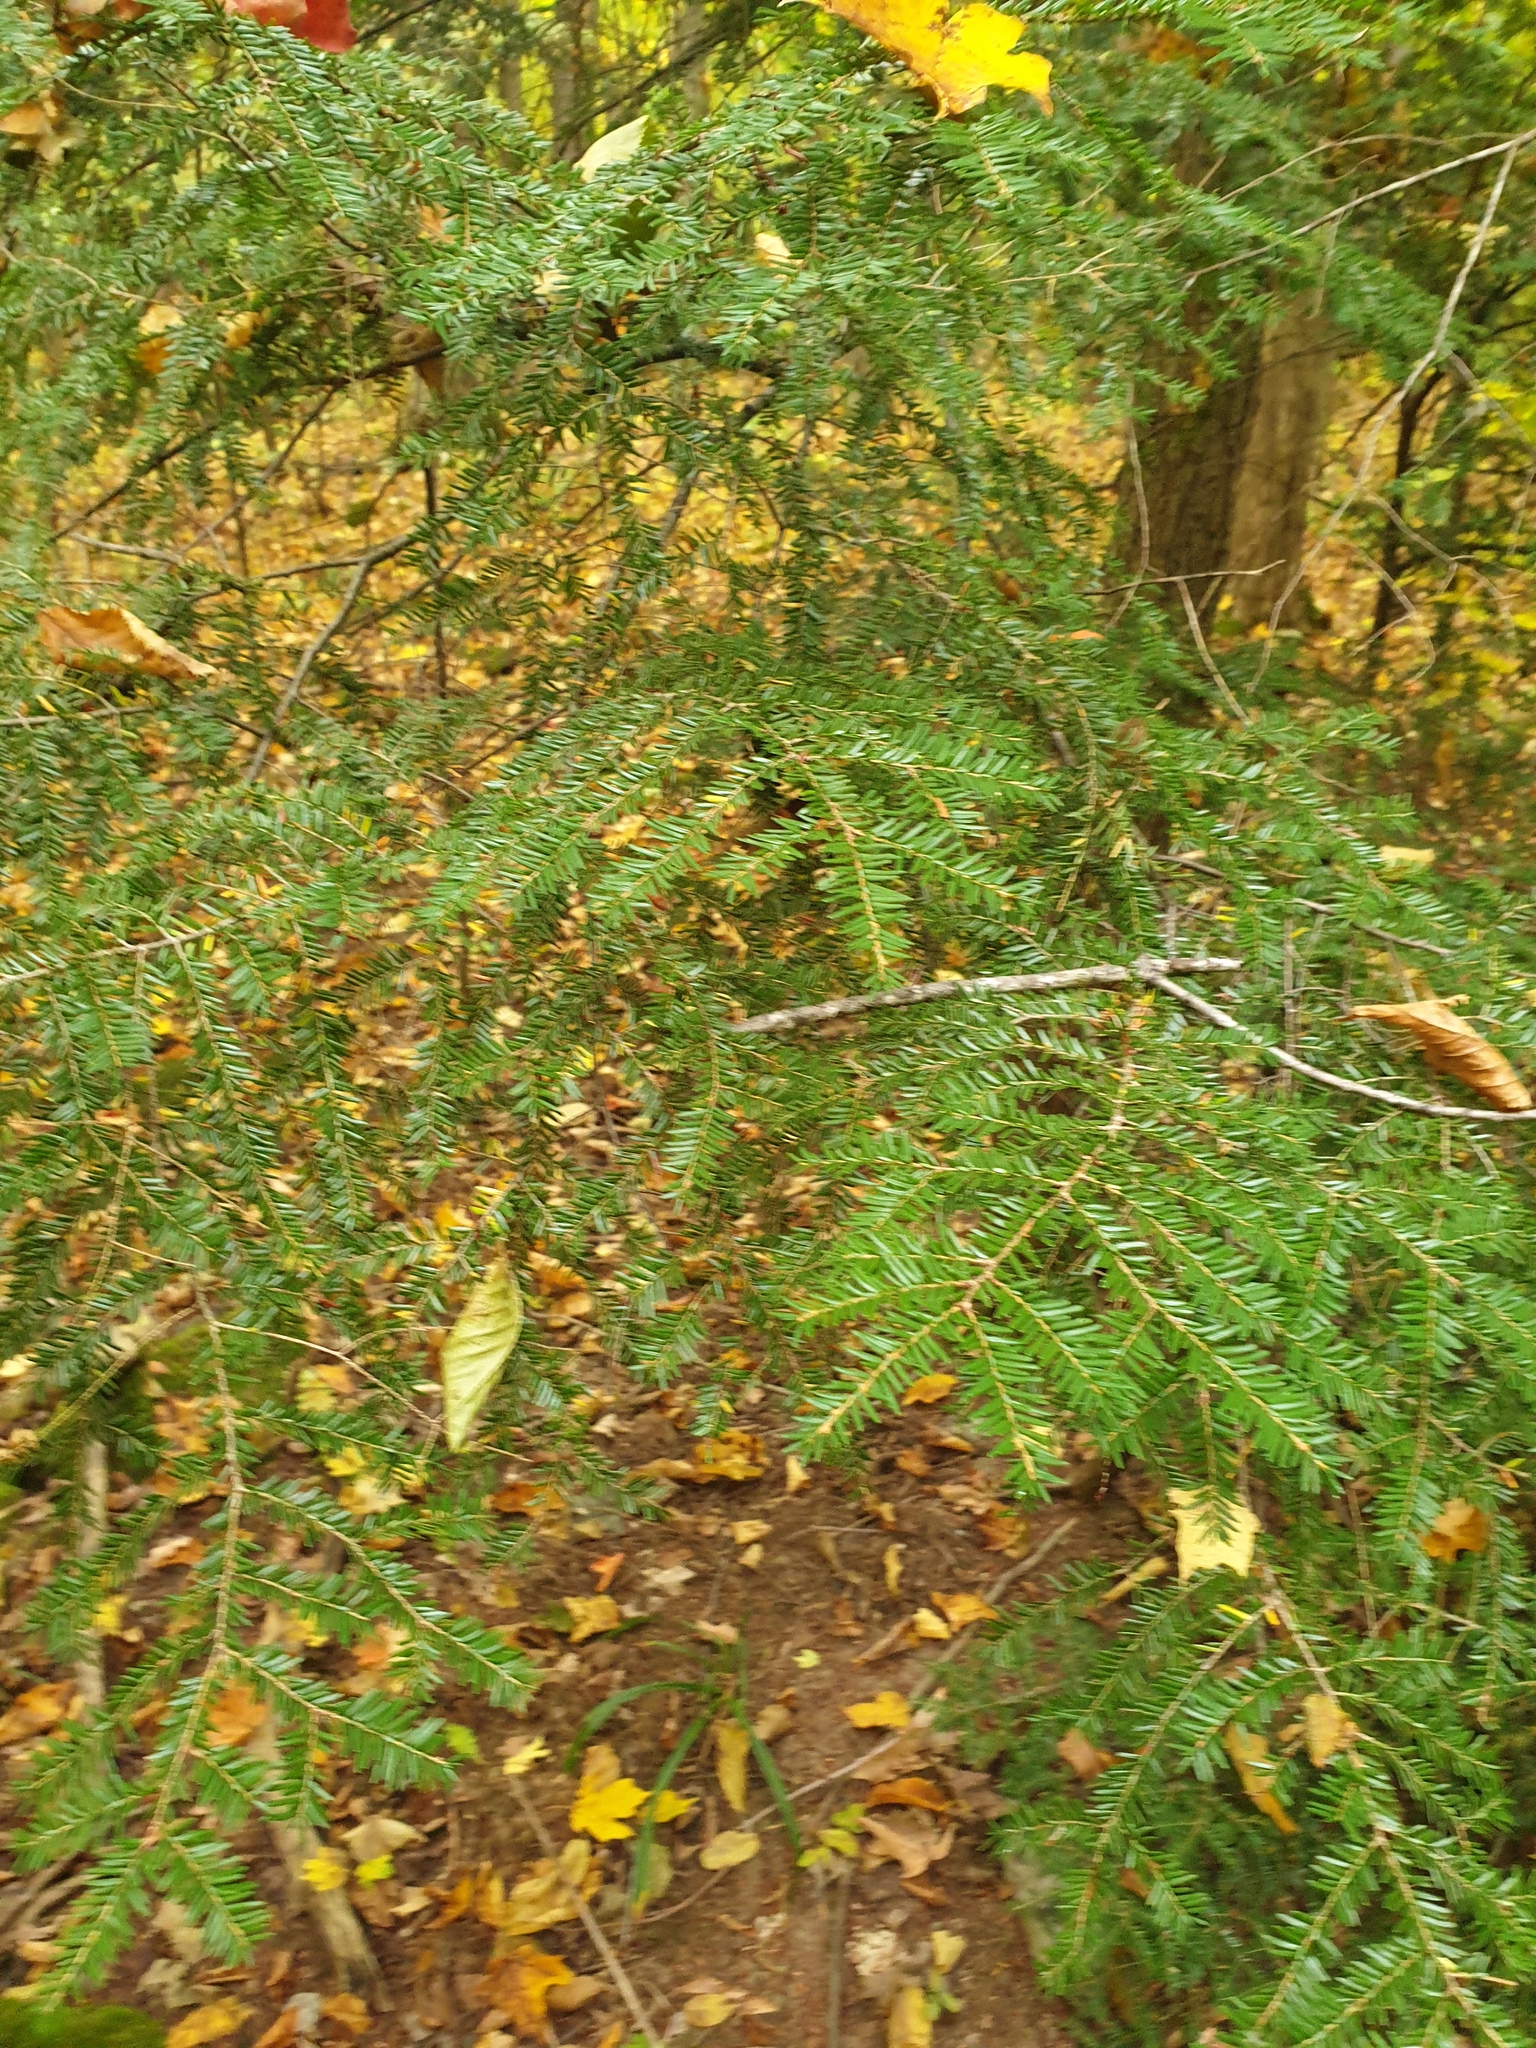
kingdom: Plantae
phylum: Tracheophyta
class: Pinopsida
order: Pinales
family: Pinaceae
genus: Tsuga
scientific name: Tsuga canadensis
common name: Eastern hemlock
